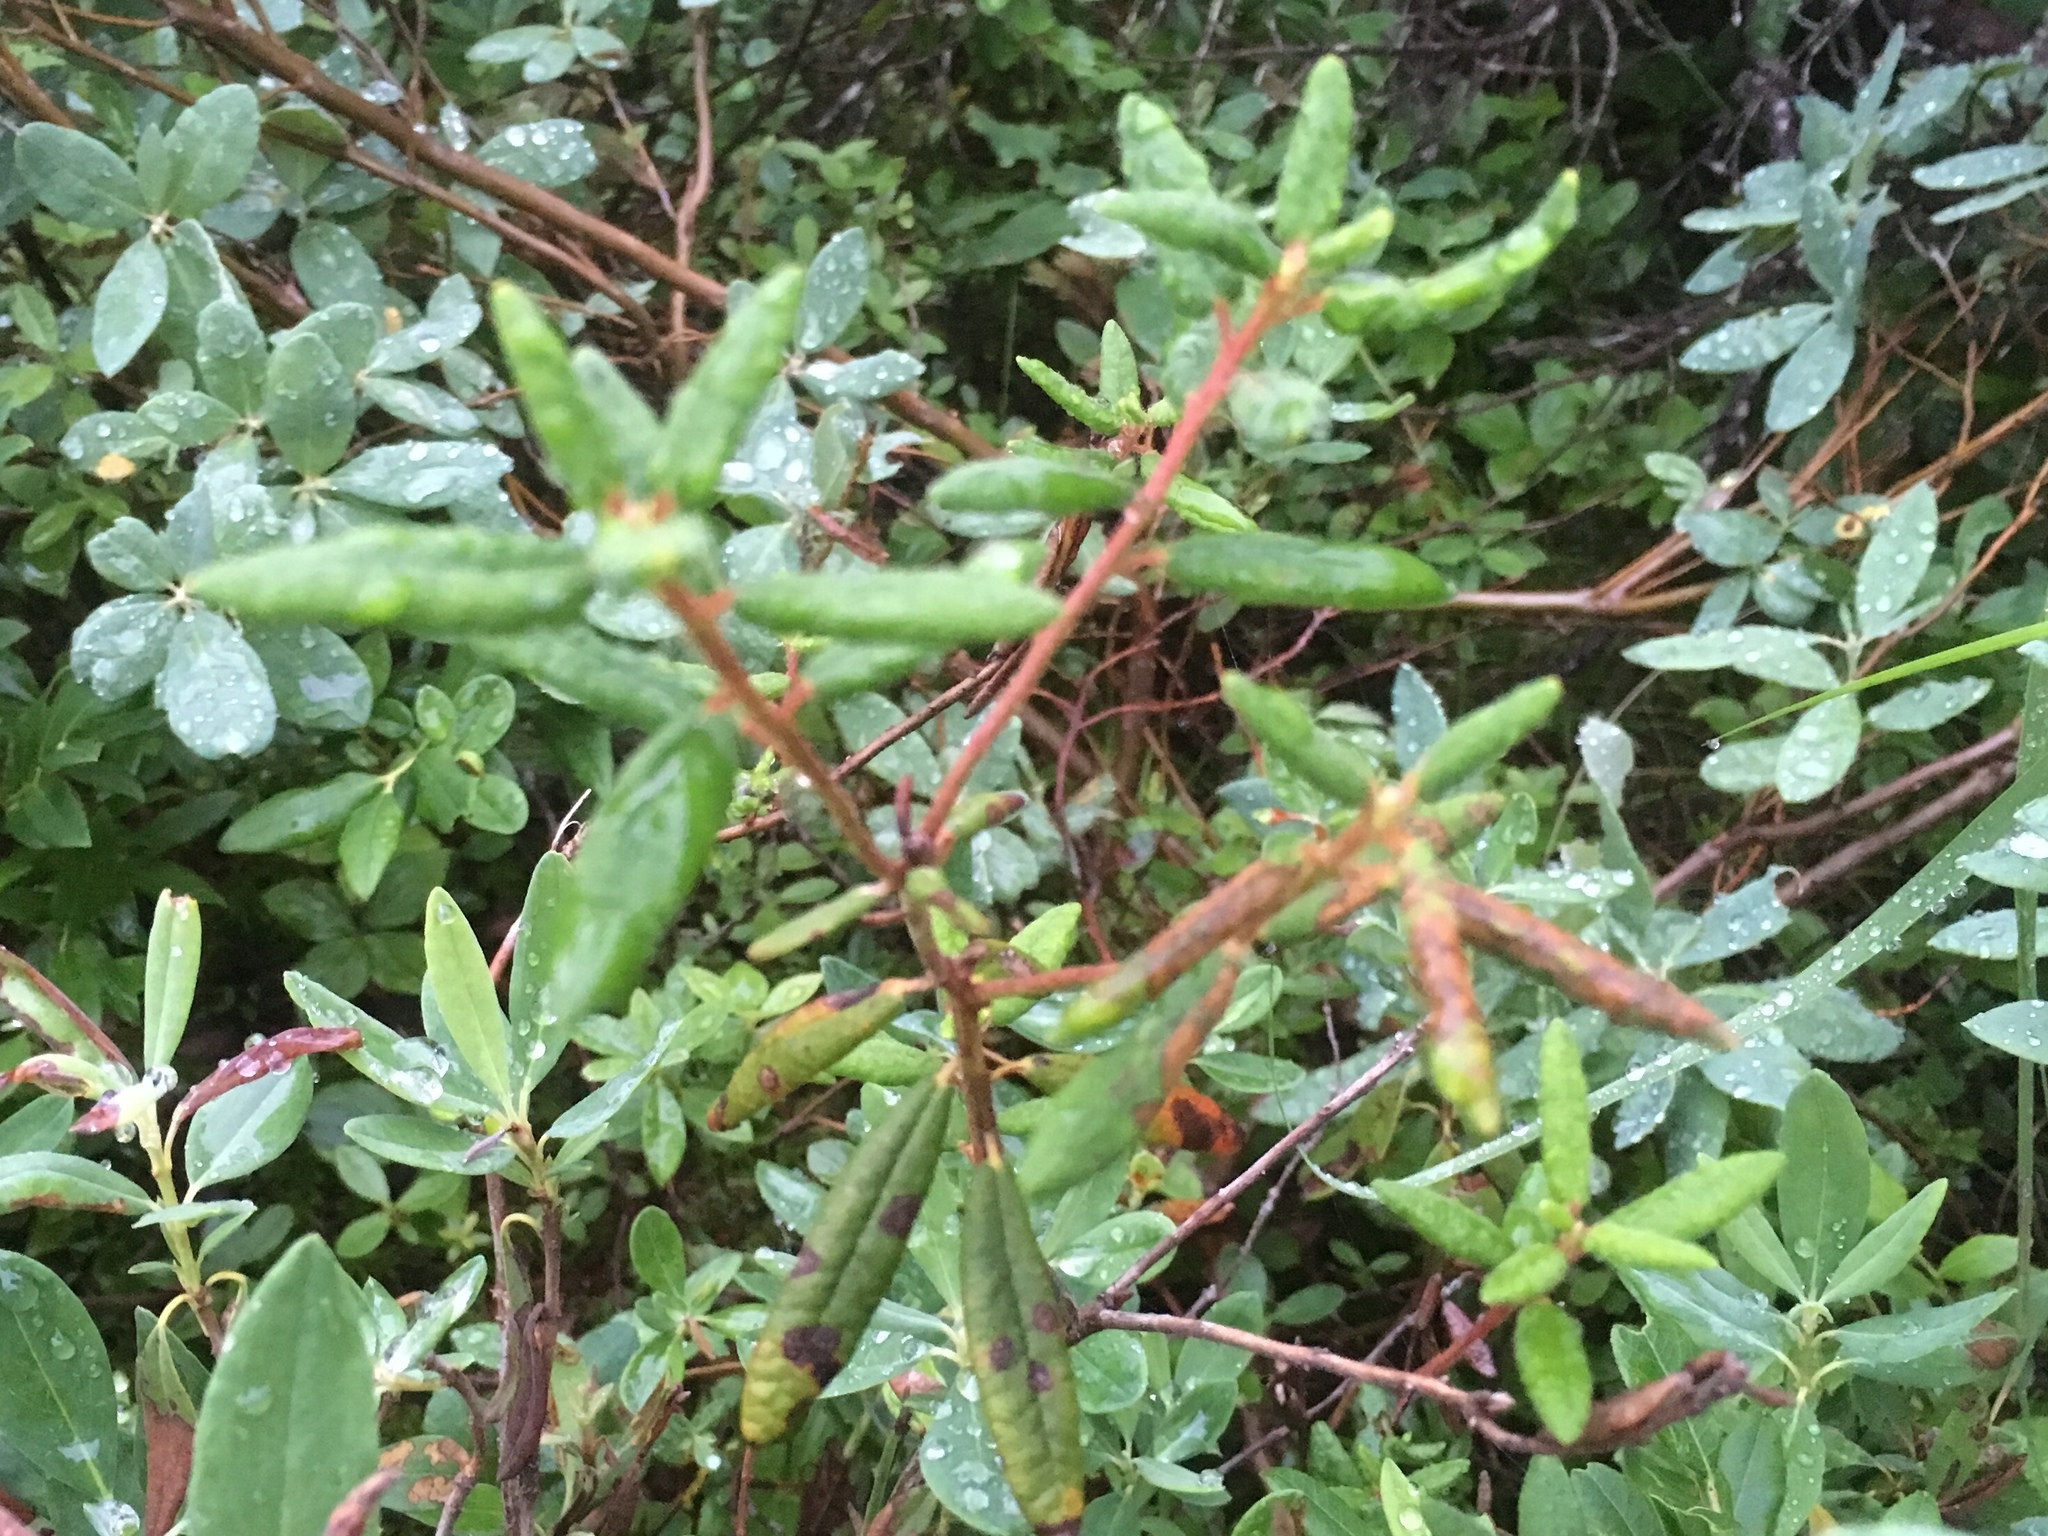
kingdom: Plantae
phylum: Tracheophyta
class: Magnoliopsida
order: Ericales
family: Ericaceae
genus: Rhododendron
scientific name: Rhododendron groenlandicum
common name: Bog labrador tea
